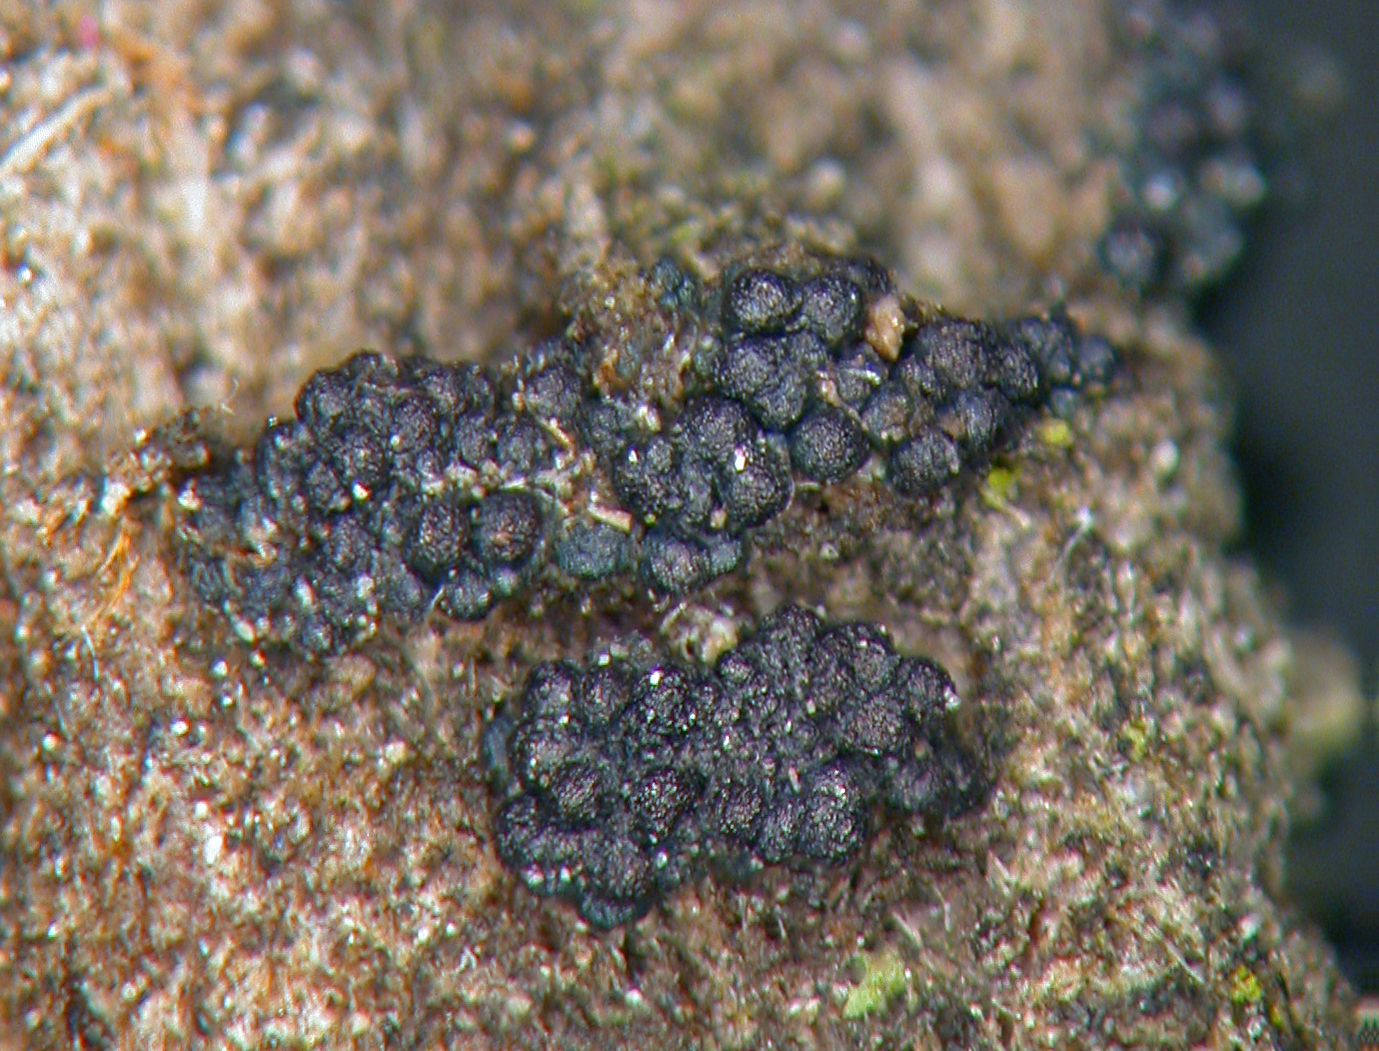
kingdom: Fungi
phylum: Ascomycota
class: Sordariomycetes
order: Hypocreales
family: Nectriaceae
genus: Fusarium
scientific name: Fusarium lateritium
